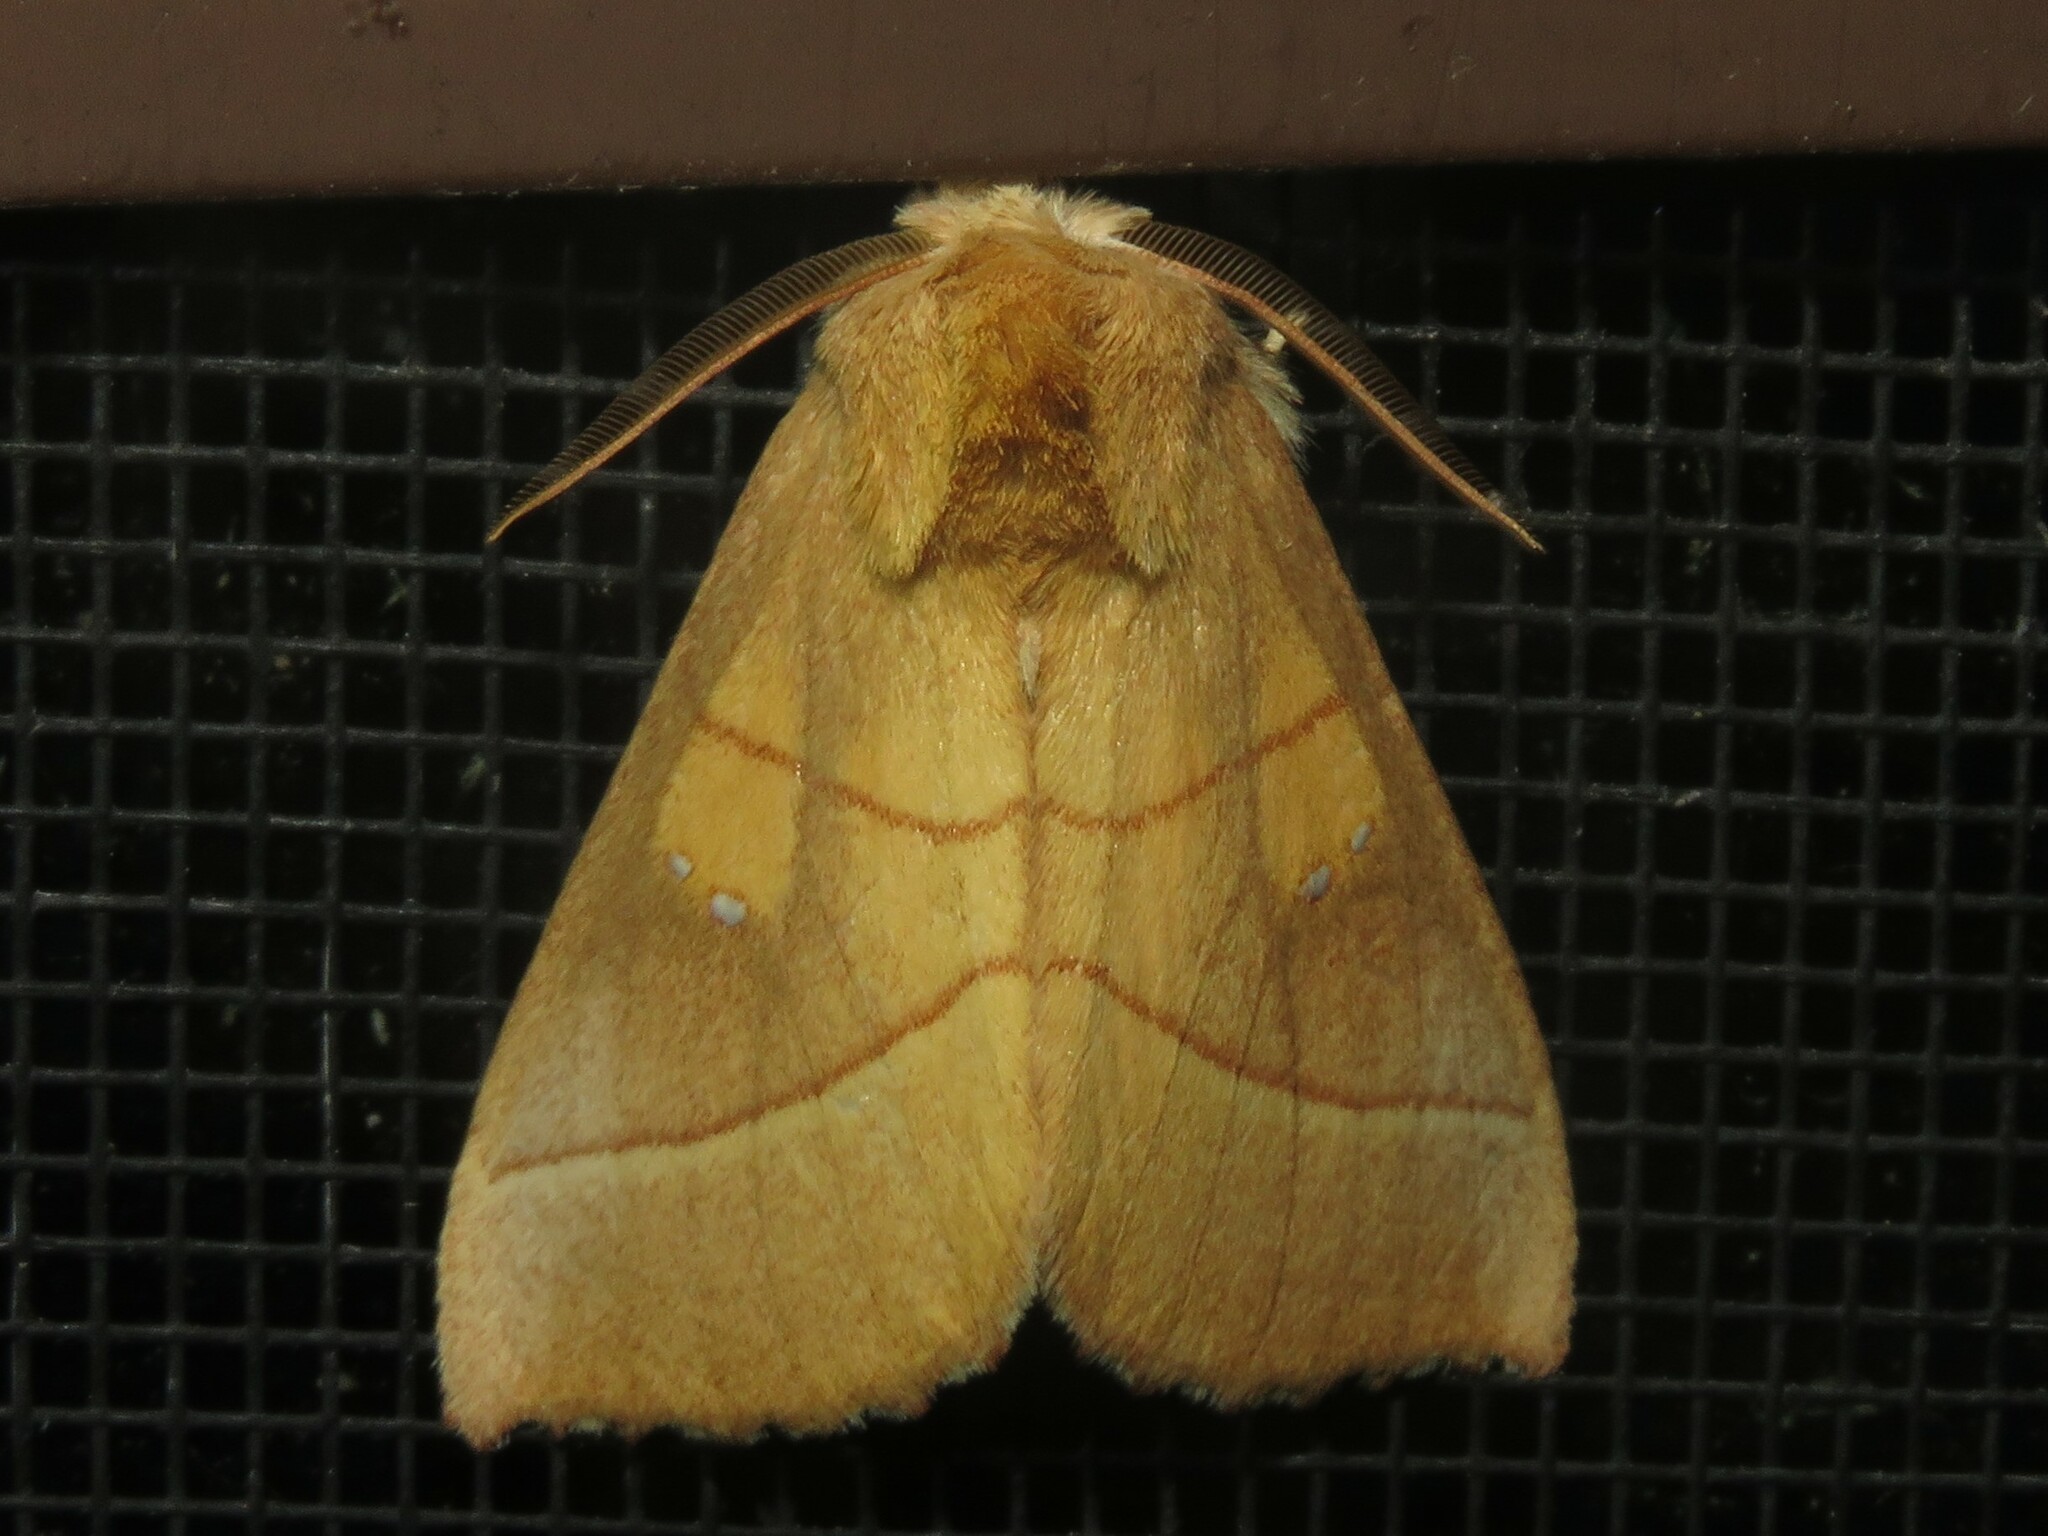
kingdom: Animalia
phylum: Arthropoda
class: Insecta
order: Lepidoptera
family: Notodontidae
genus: Nadata
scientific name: Nadata gibbosa
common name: White-dotted prominent
